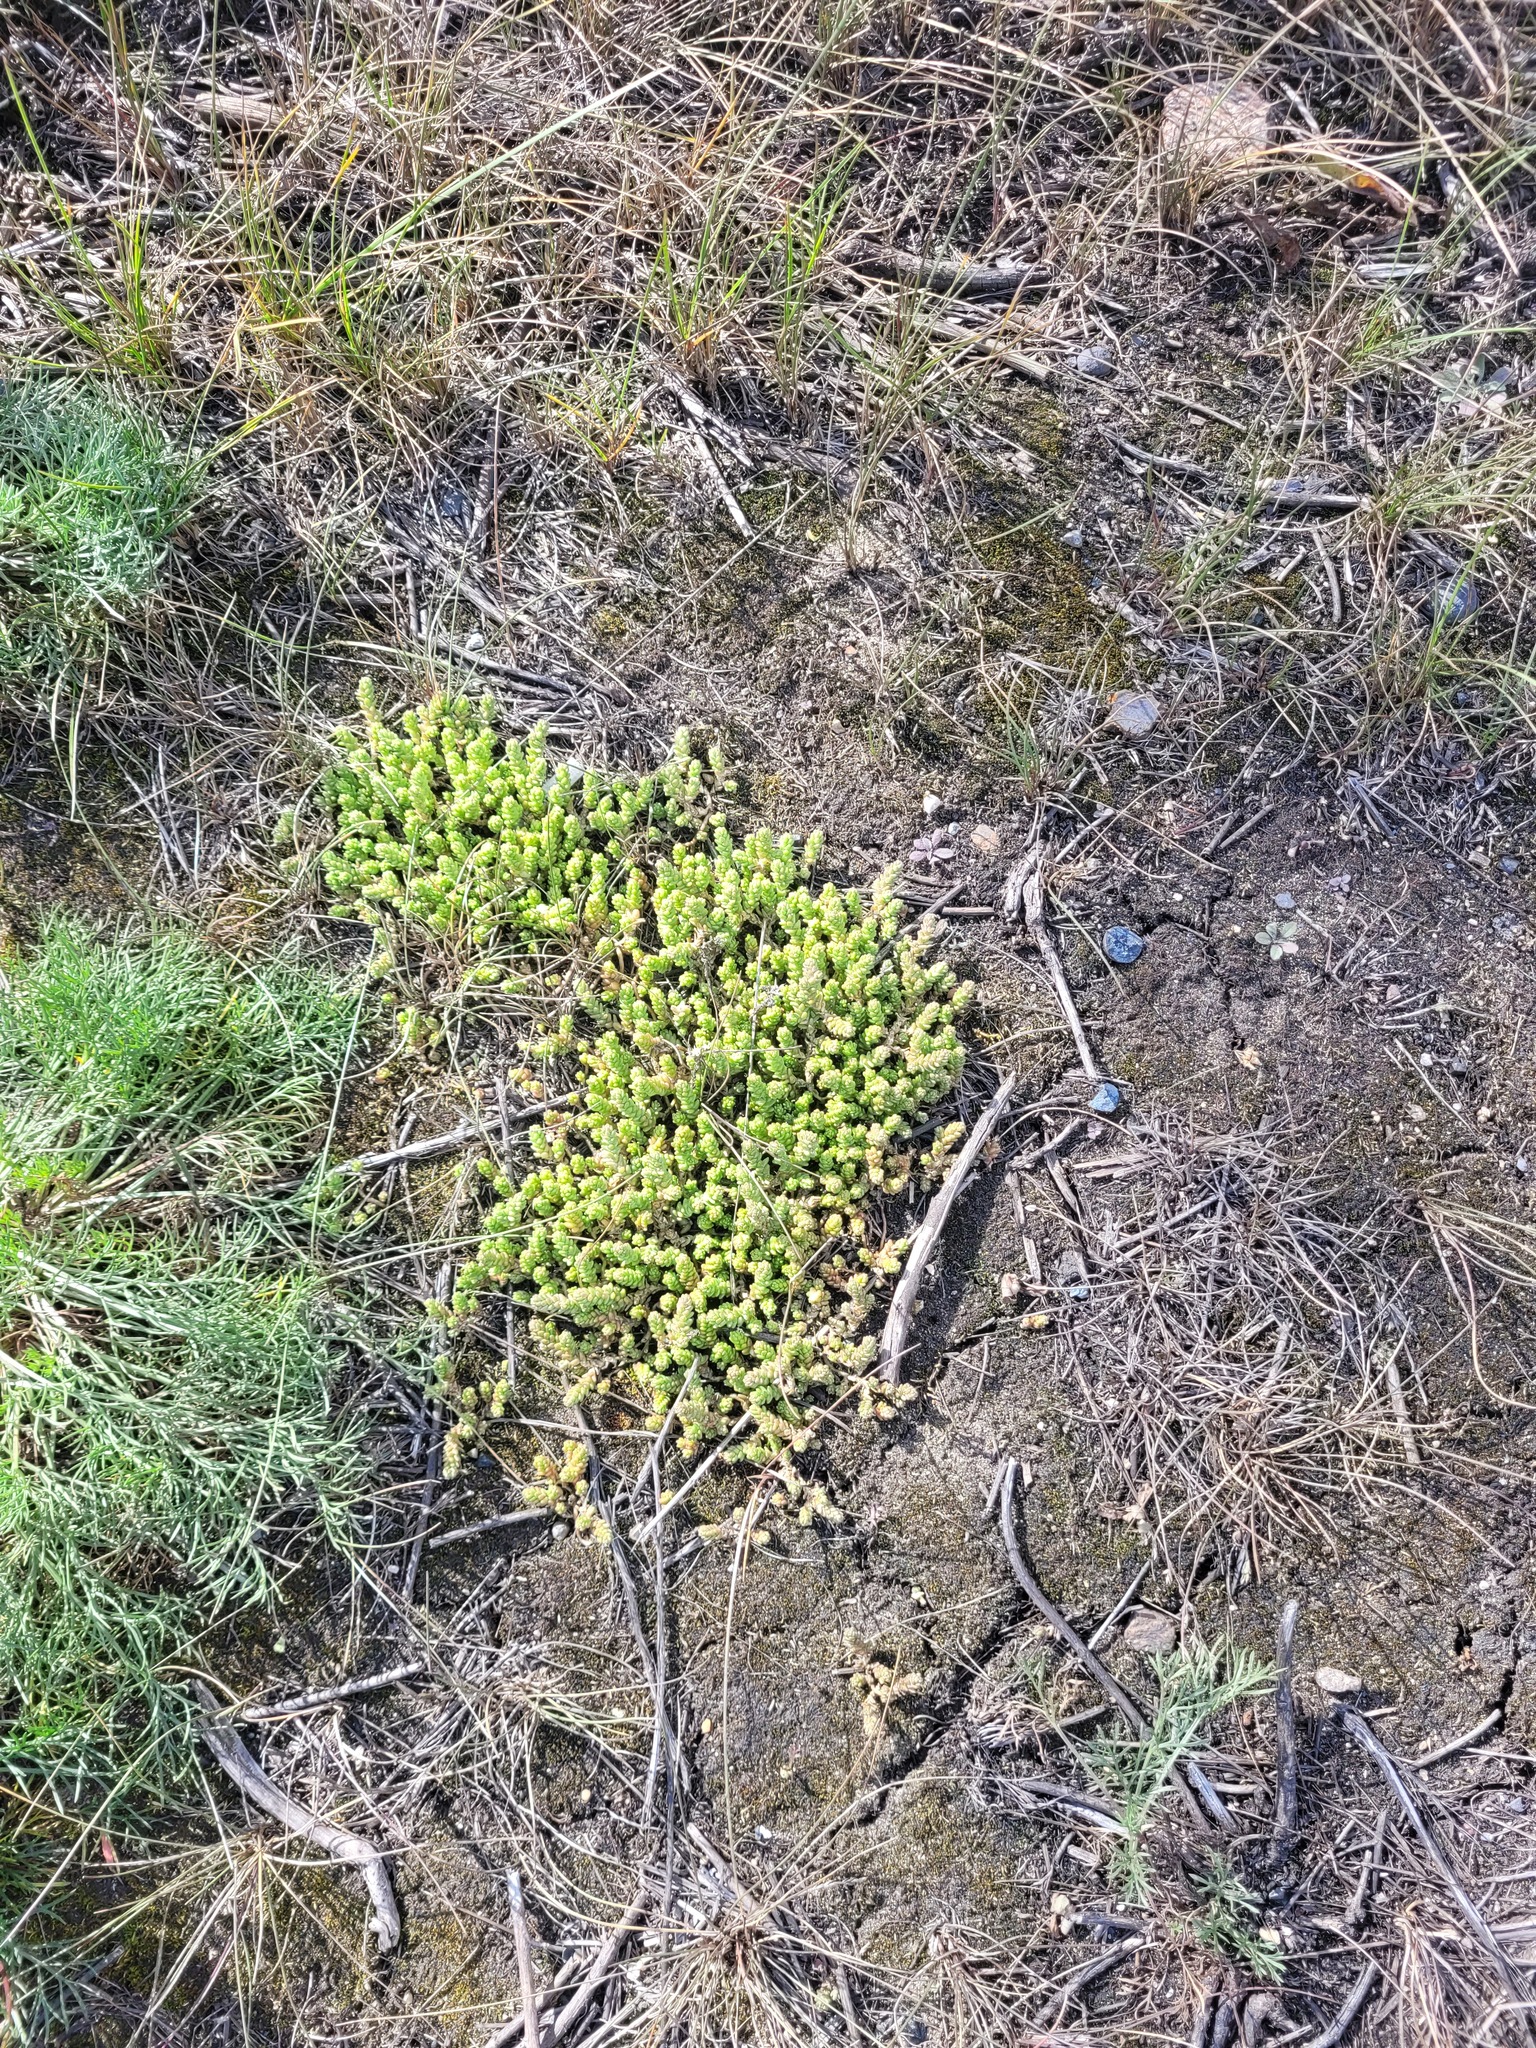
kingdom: Plantae
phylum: Tracheophyta
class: Magnoliopsida
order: Saxifragales
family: Crassulaceae
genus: Sedum
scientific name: Sedum acre
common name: Biting stonecrop
